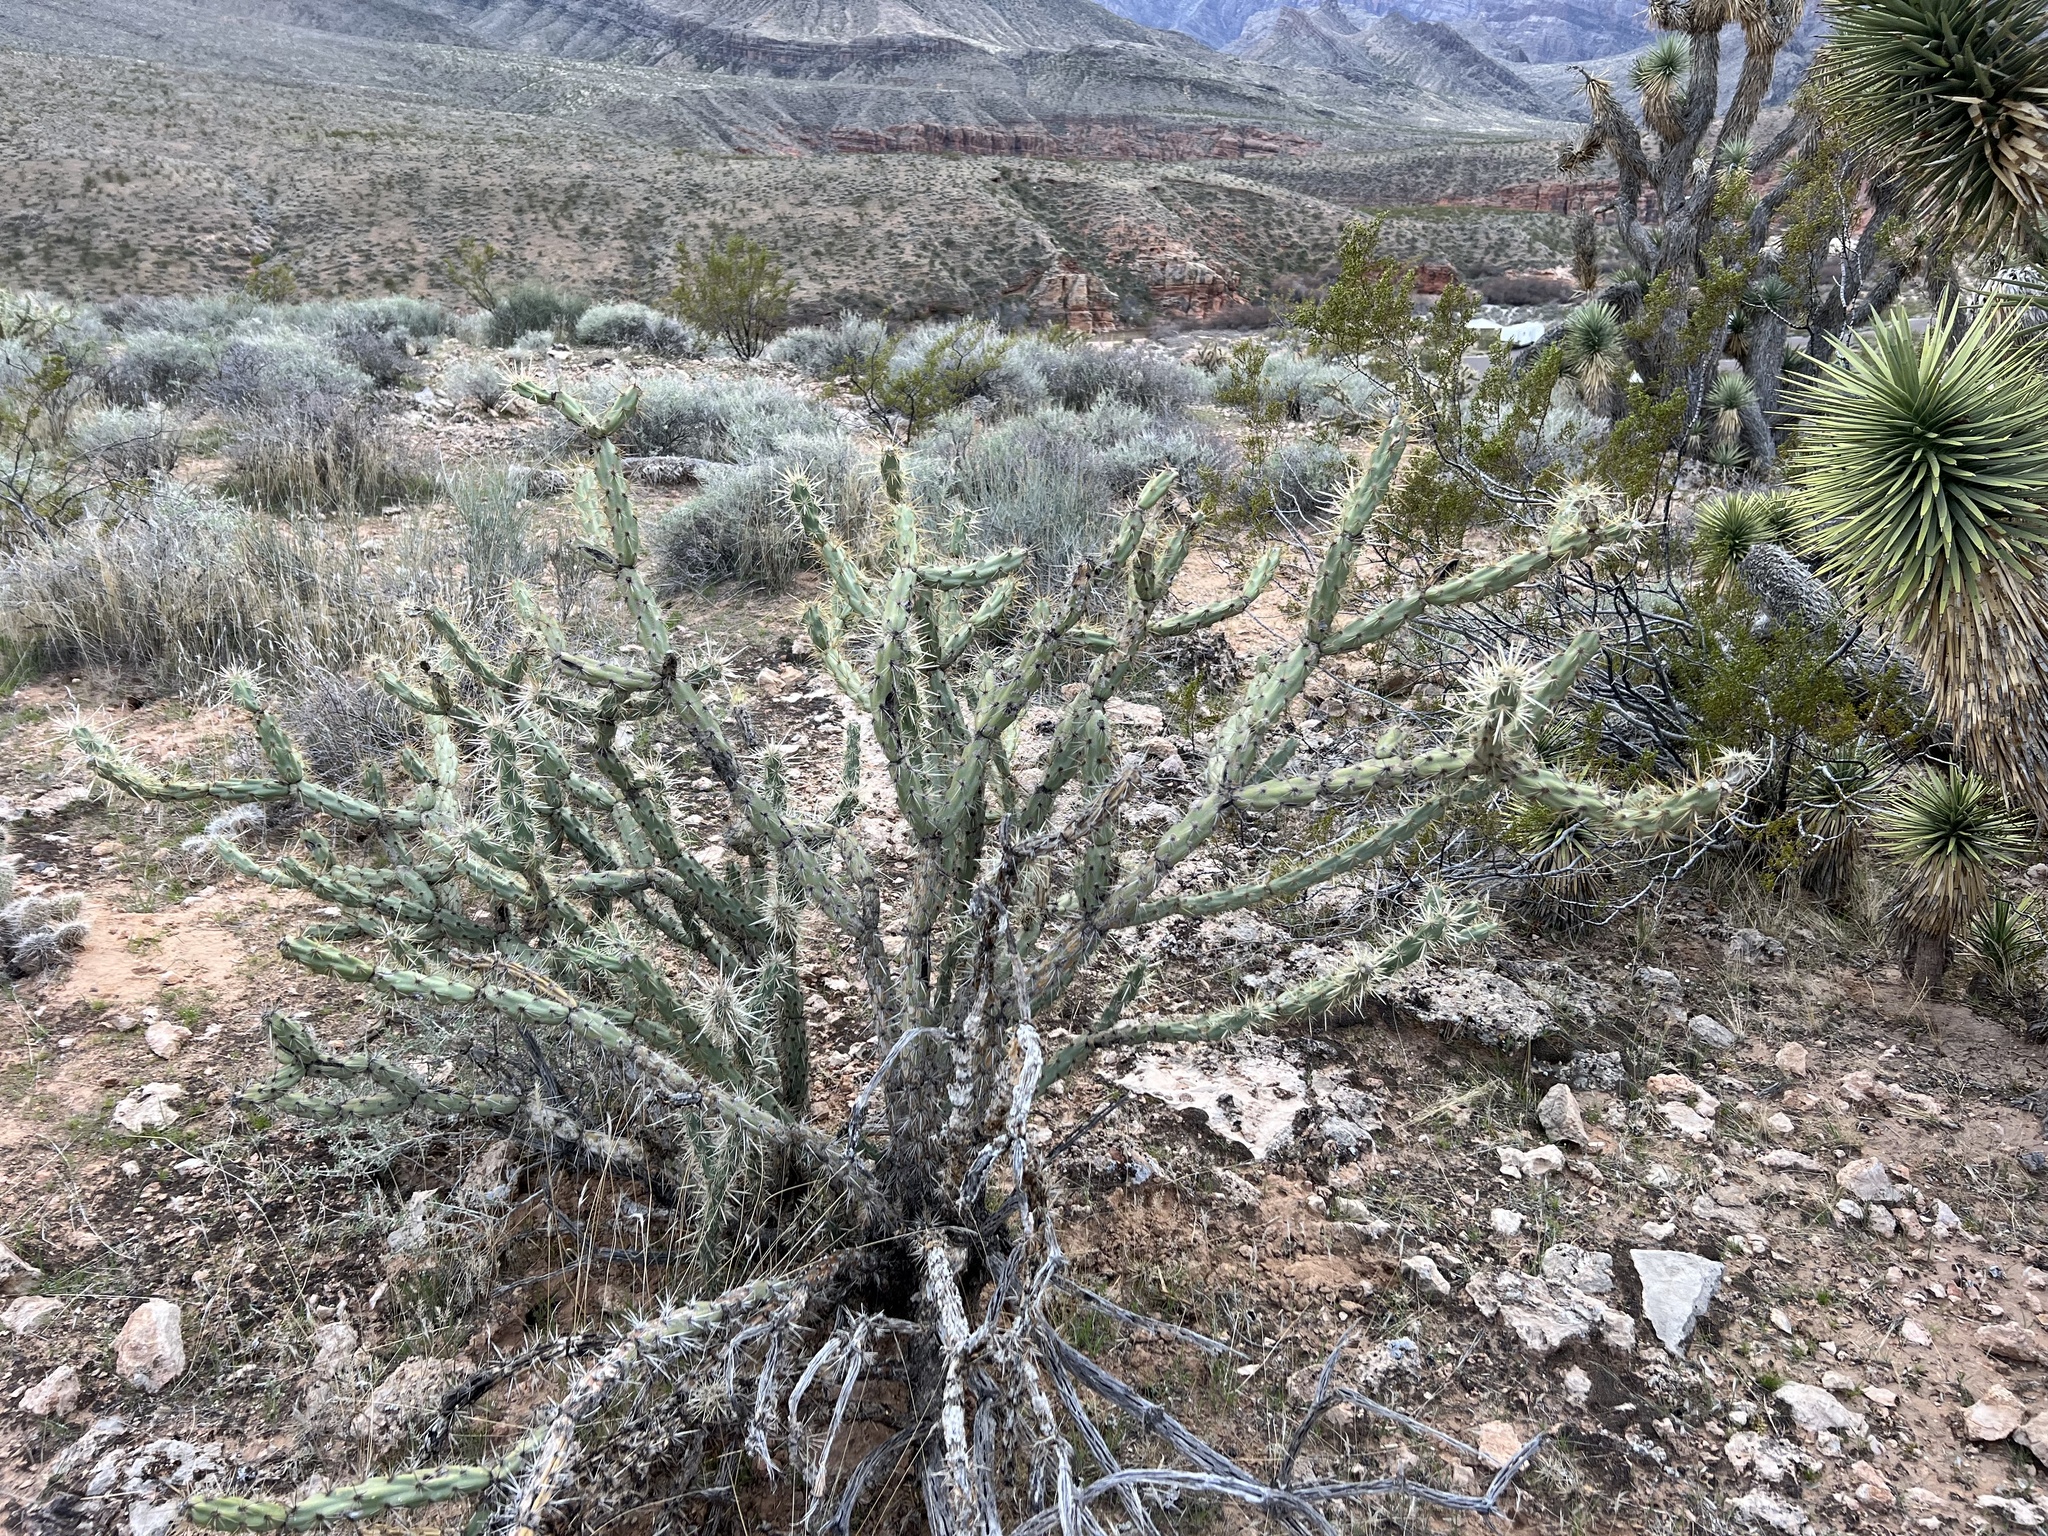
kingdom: Plantae
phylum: Tracheophyta
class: Magnoliopsida
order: Caryophyllales
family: Cactaceae
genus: Cylindropuntia
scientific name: Cylindropuntia acanthocarpa
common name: Buckhorn cholla
